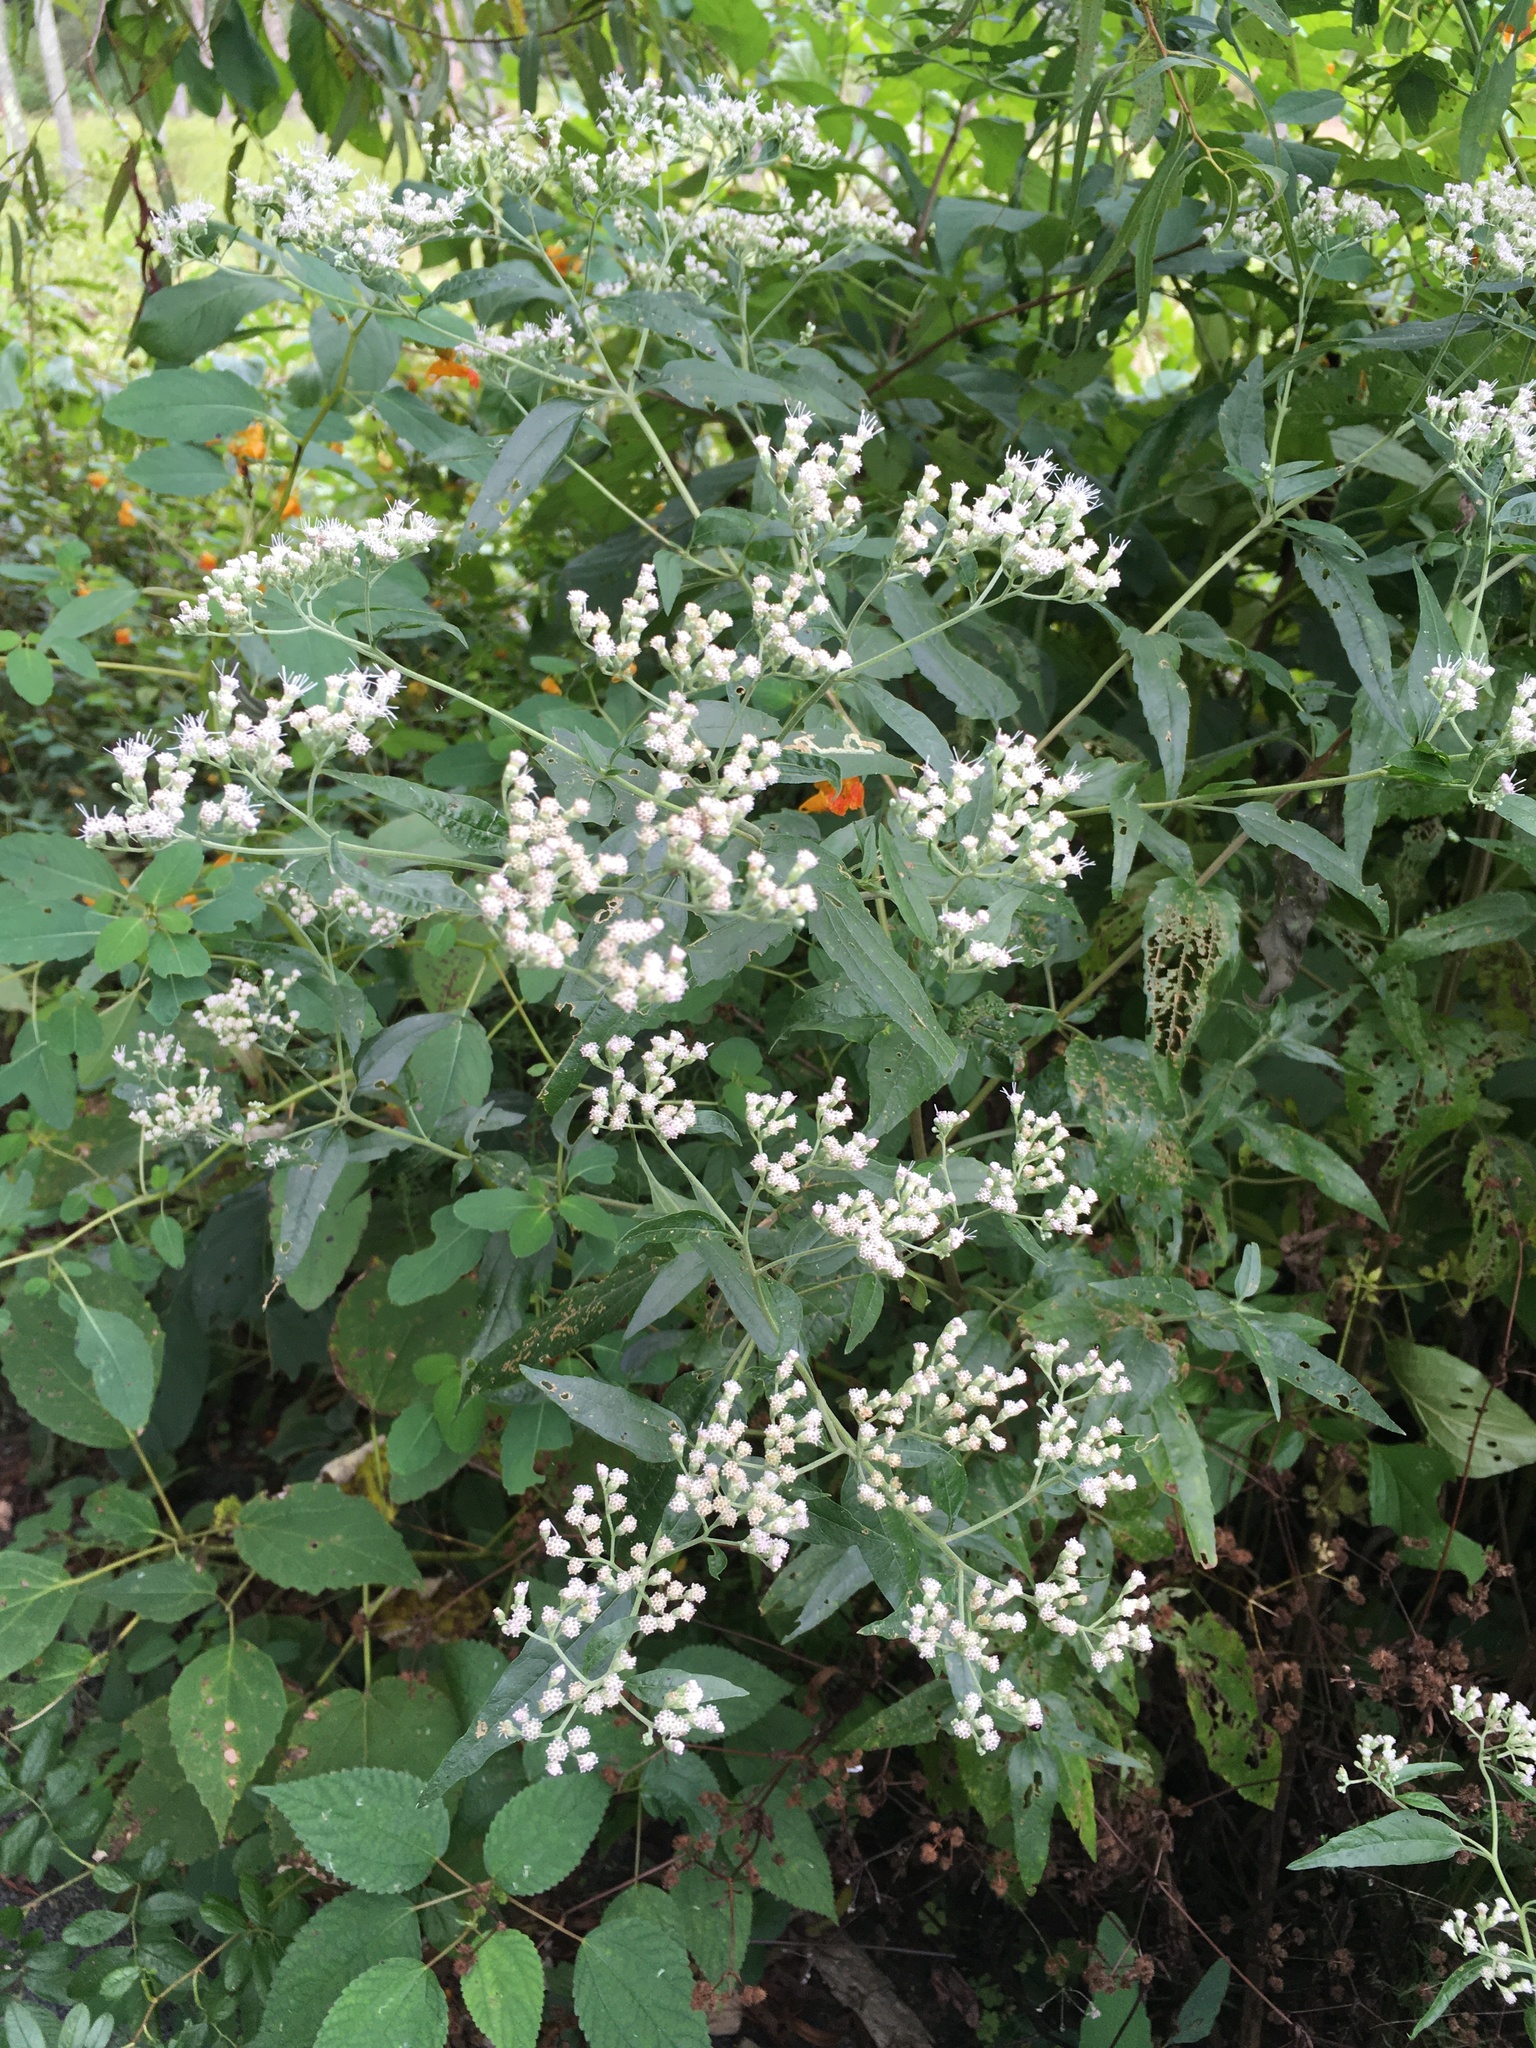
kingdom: Plantae
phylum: Tracheophyta
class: Magnoliopsida
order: Asterales
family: Asteraceae
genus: Eupatorium
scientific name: Eupatorium serotinum
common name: Late boneset
